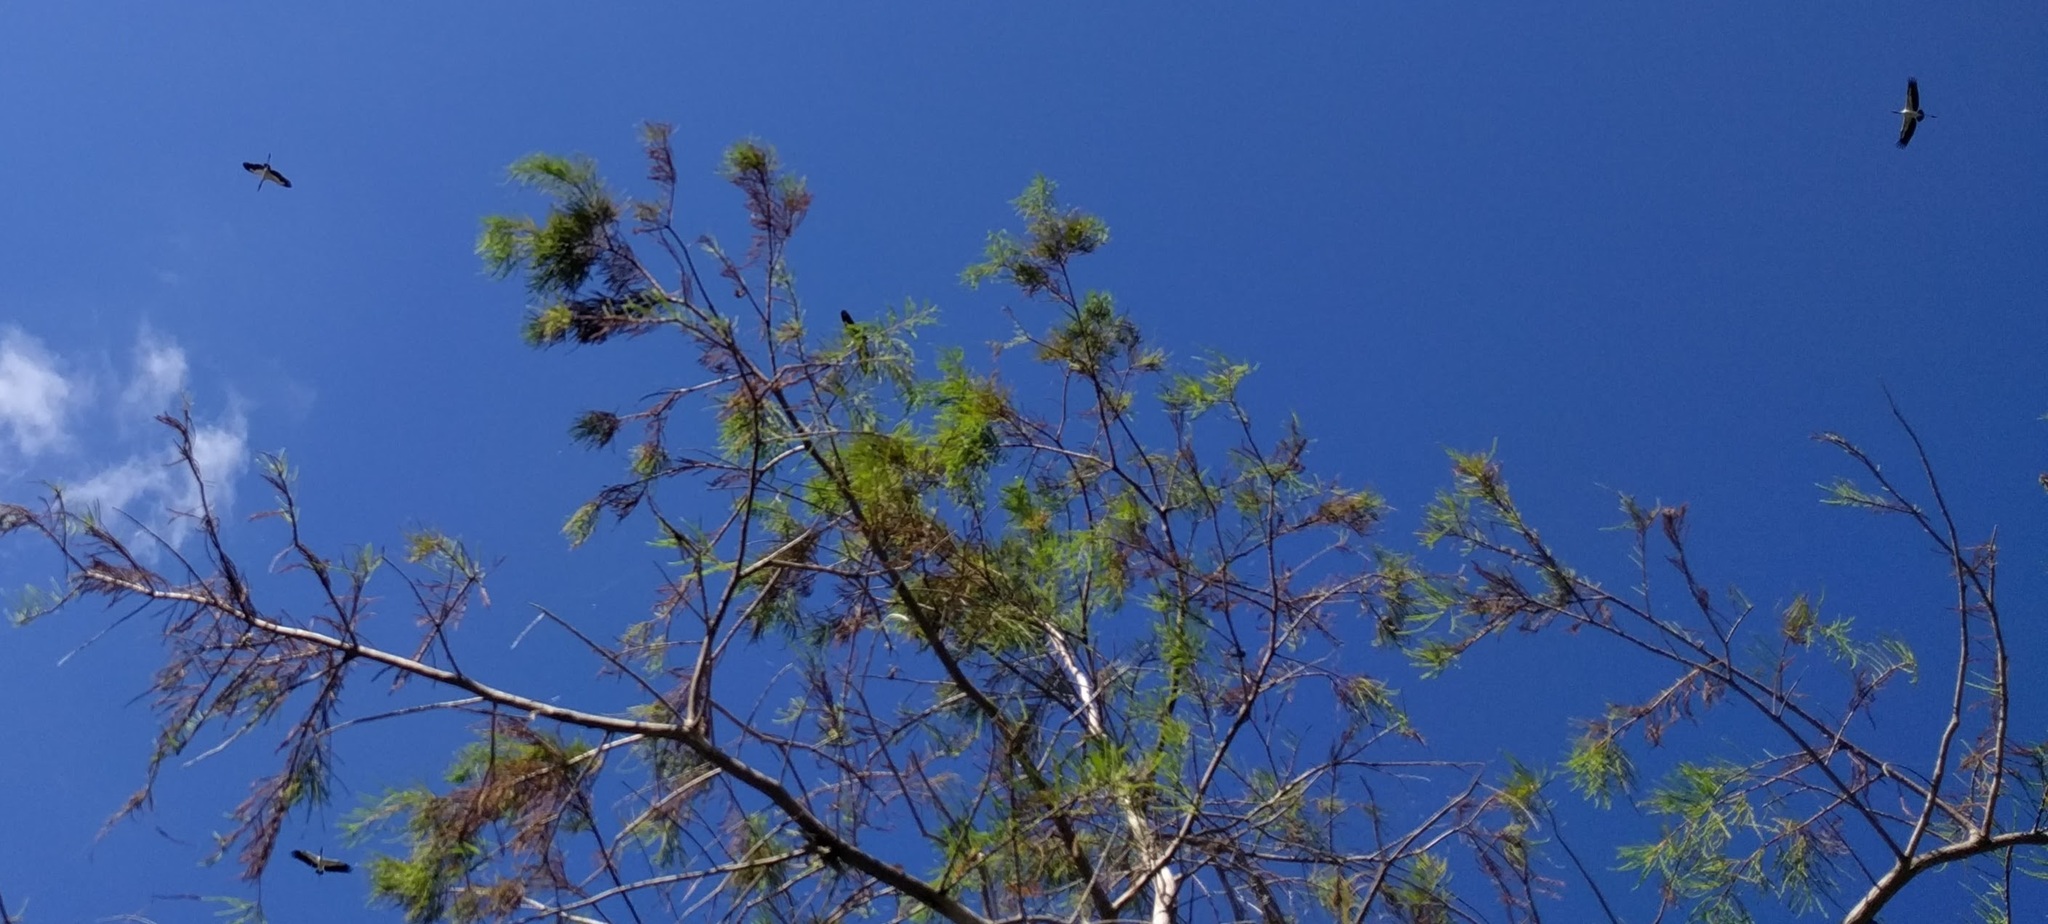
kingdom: Animalia
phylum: Chordata
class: Aves
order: Ciconiiformes
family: Ciconiidae
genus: Mycteria
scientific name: Mycteria americana
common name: Wood stork
